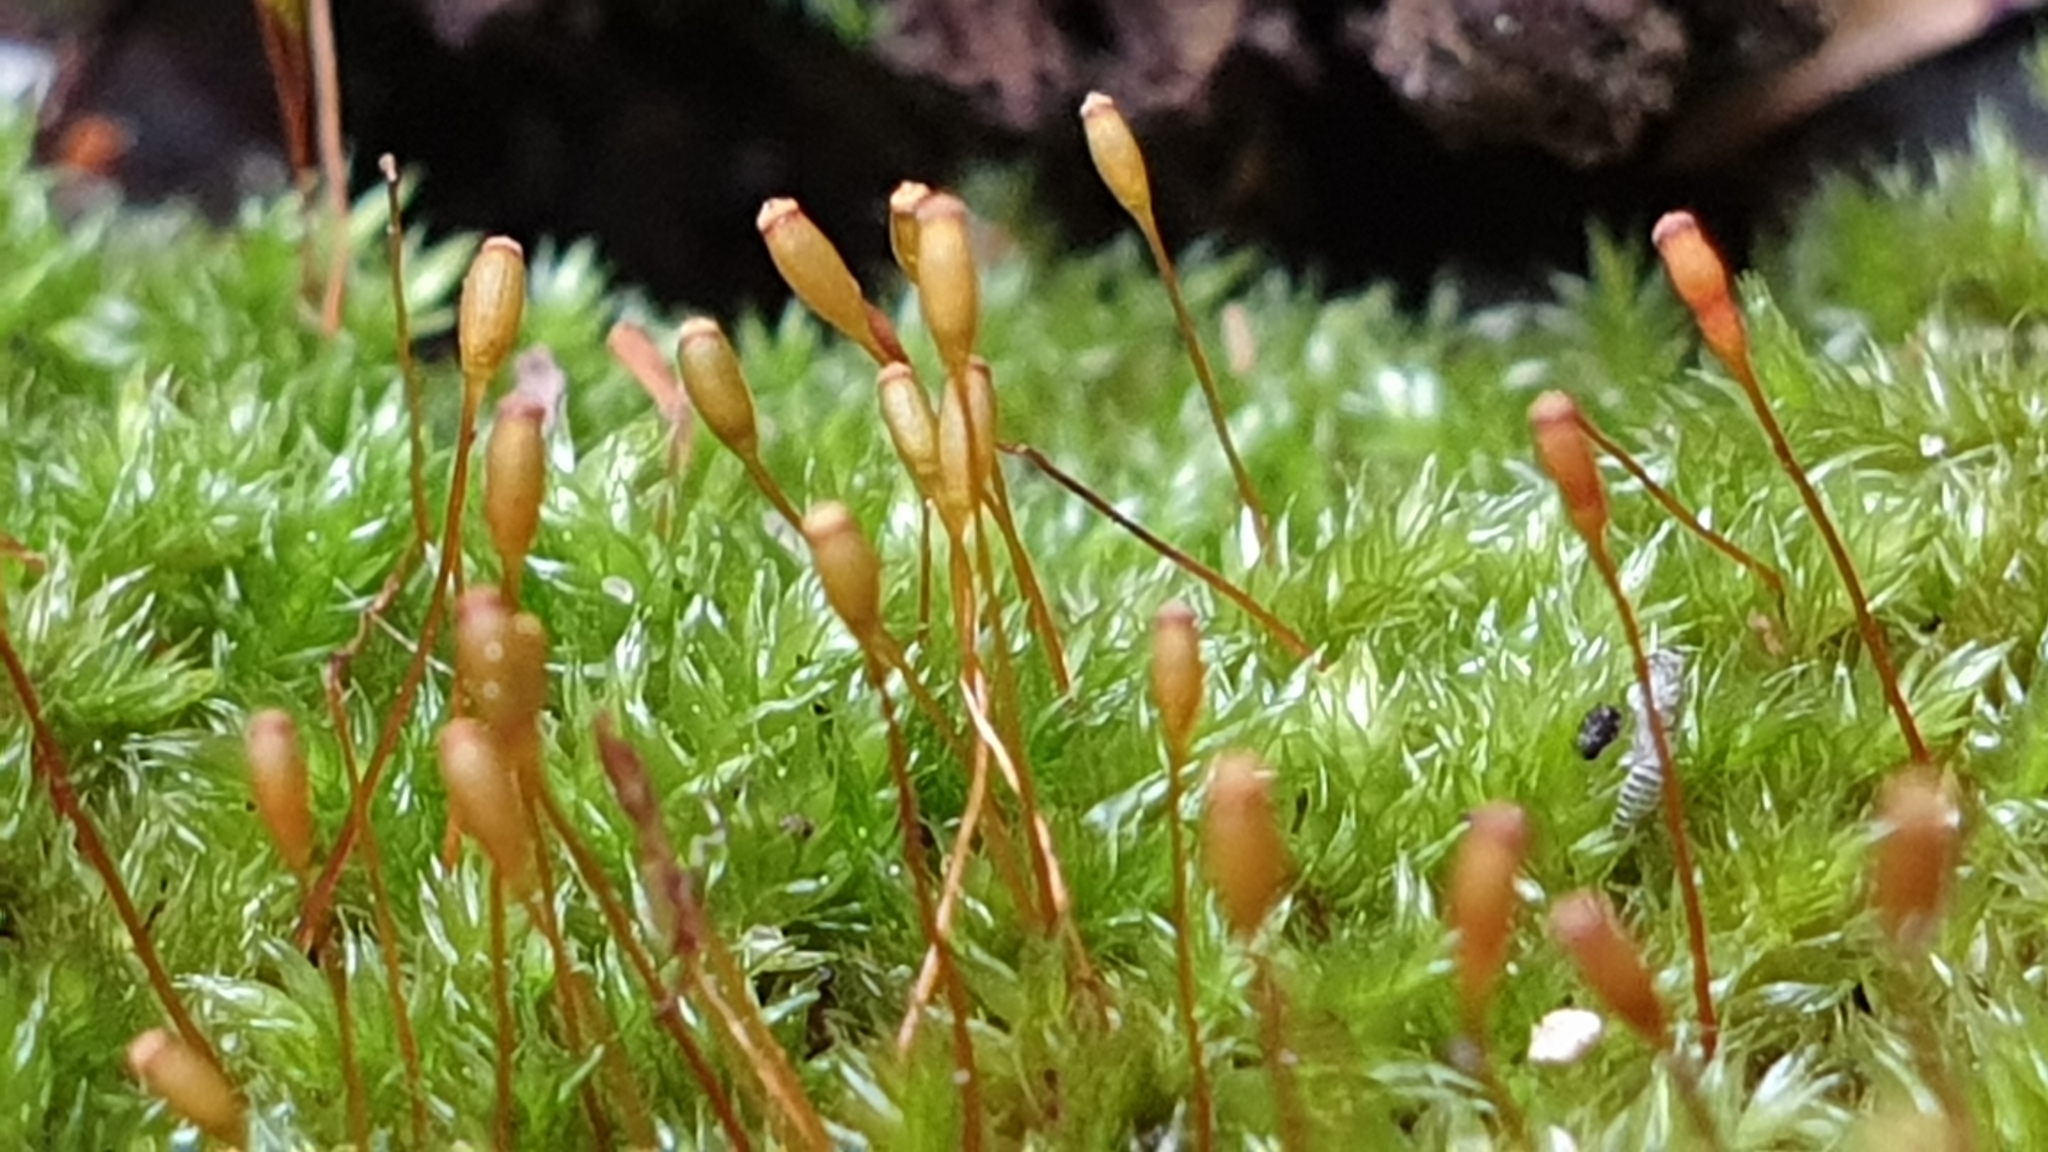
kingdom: Plantae
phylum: Bryophyta
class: Bryopsida
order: Hypnales
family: Sematophyllaceae
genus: Sematophyllum
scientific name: Sematophyllum homomallum
